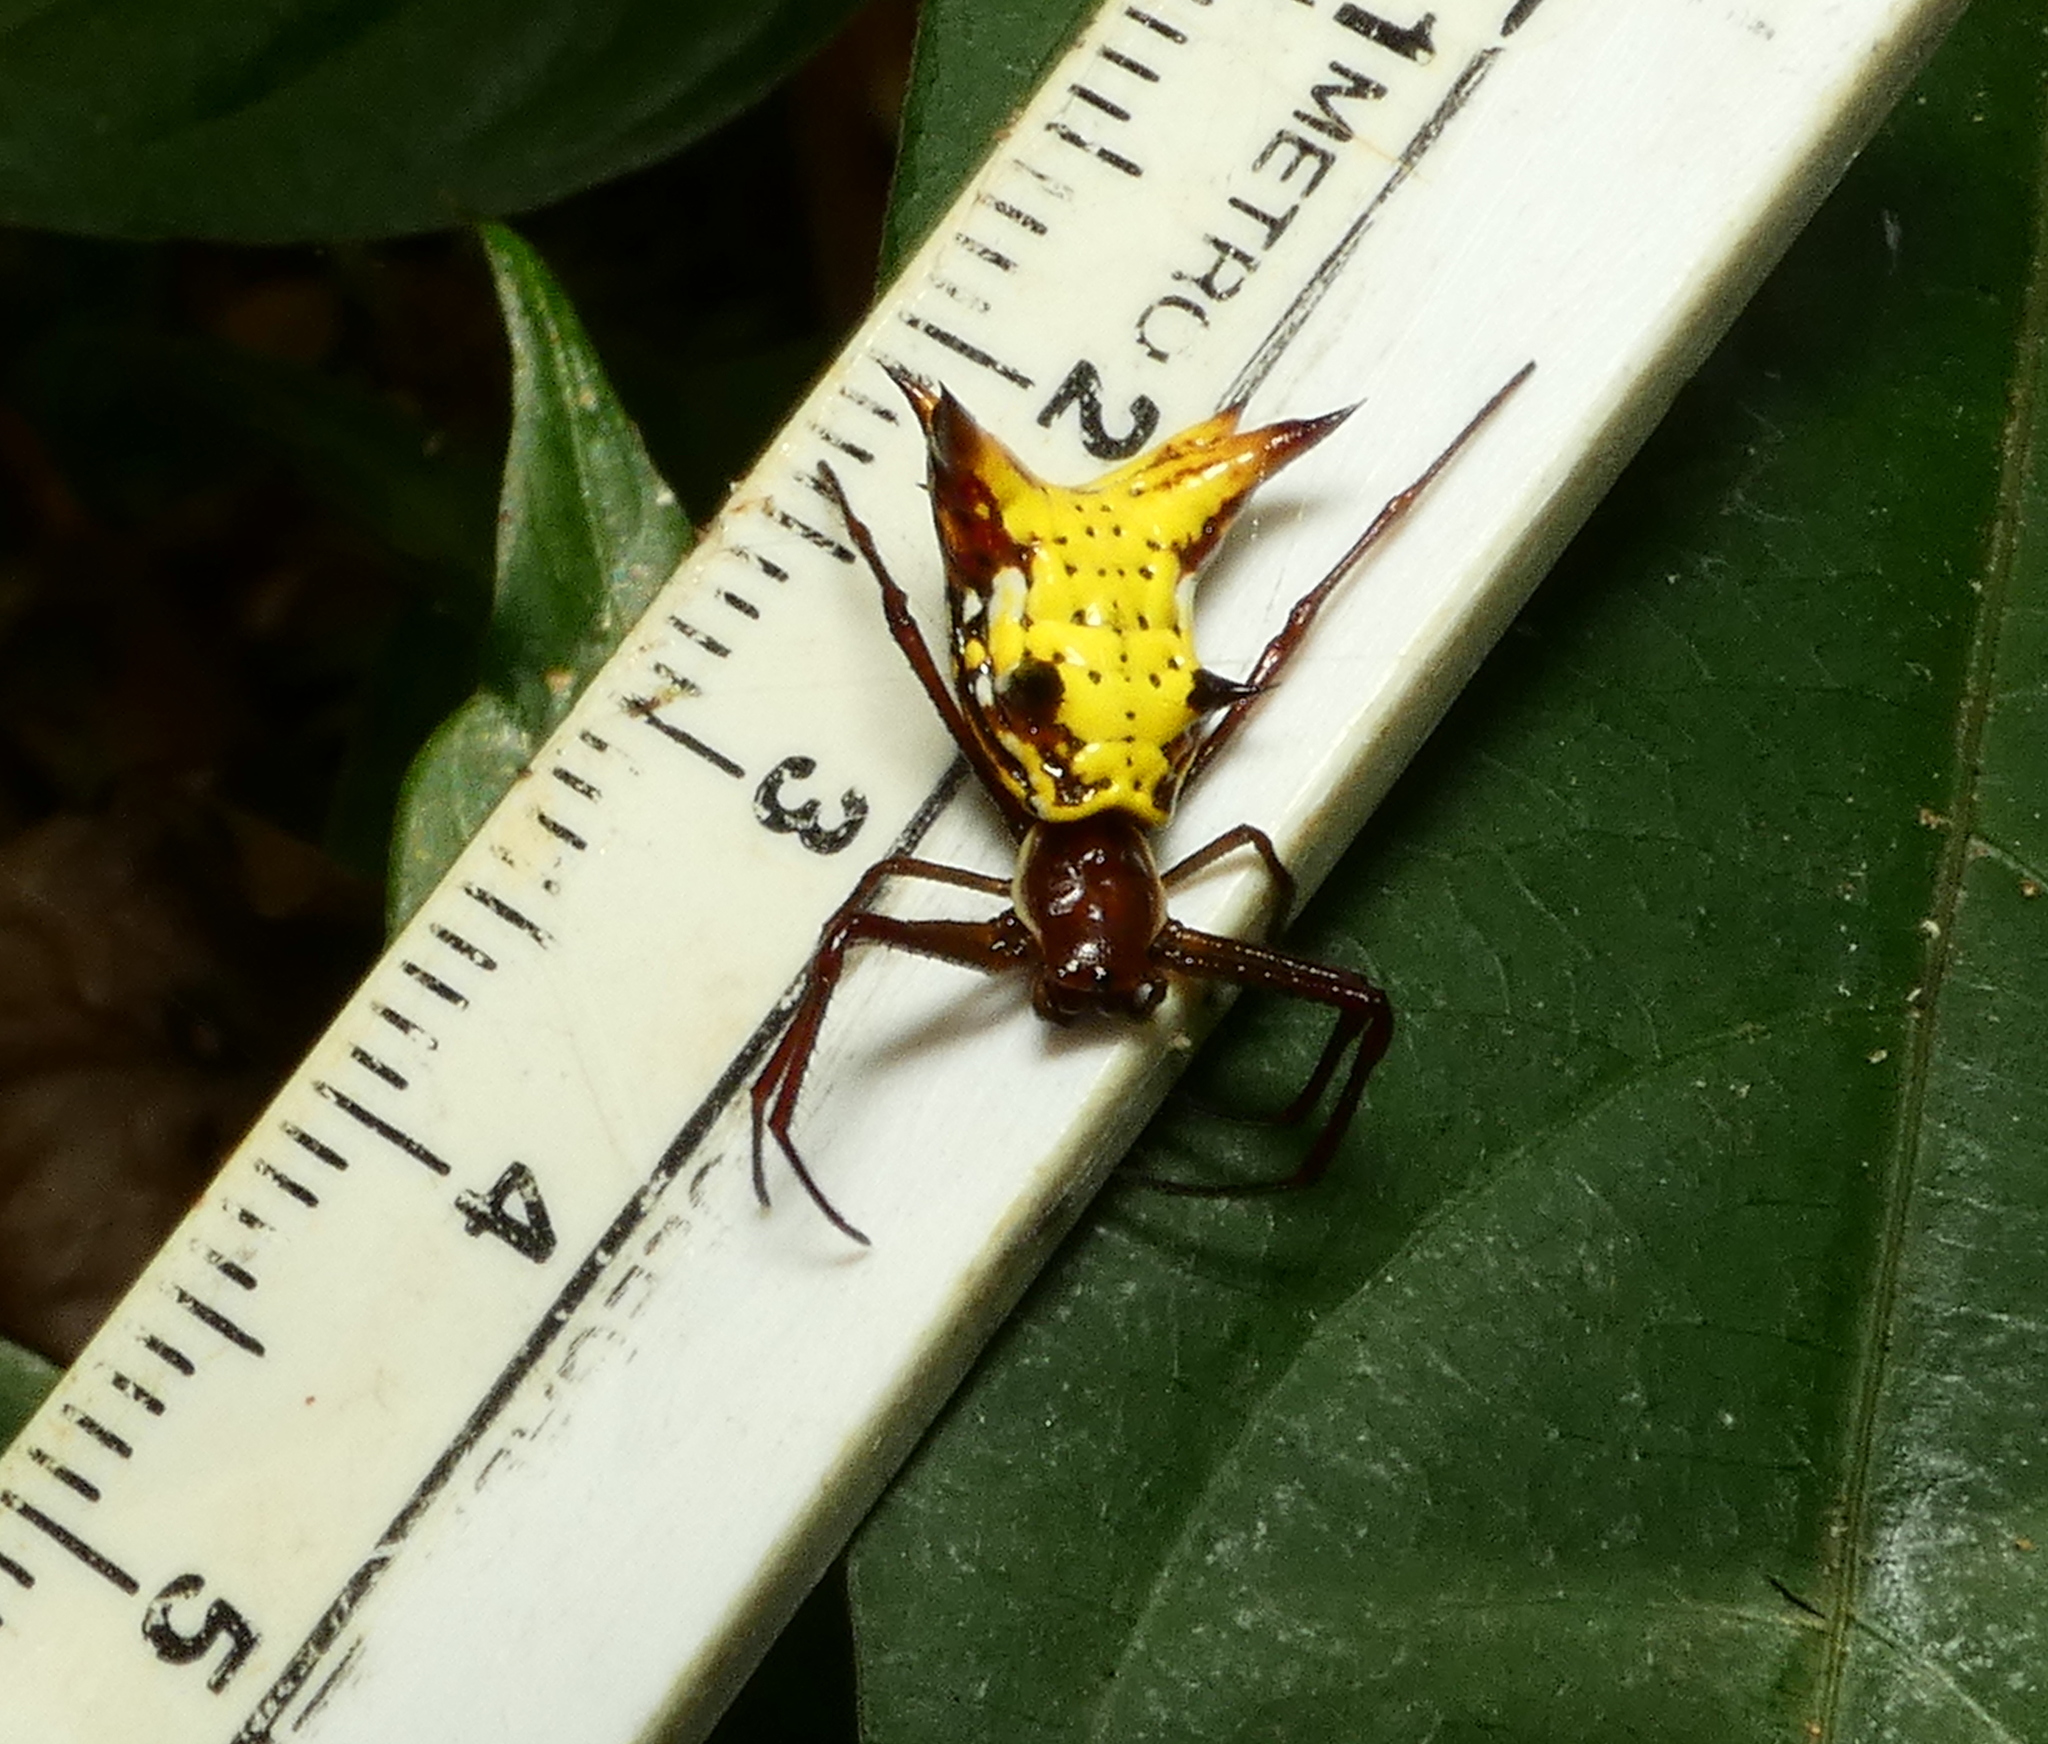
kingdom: Animalia
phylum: Arthropoda
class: Arachnida
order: Araneae
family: Araneidae
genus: Micrathena
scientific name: Micrathena fissispina
